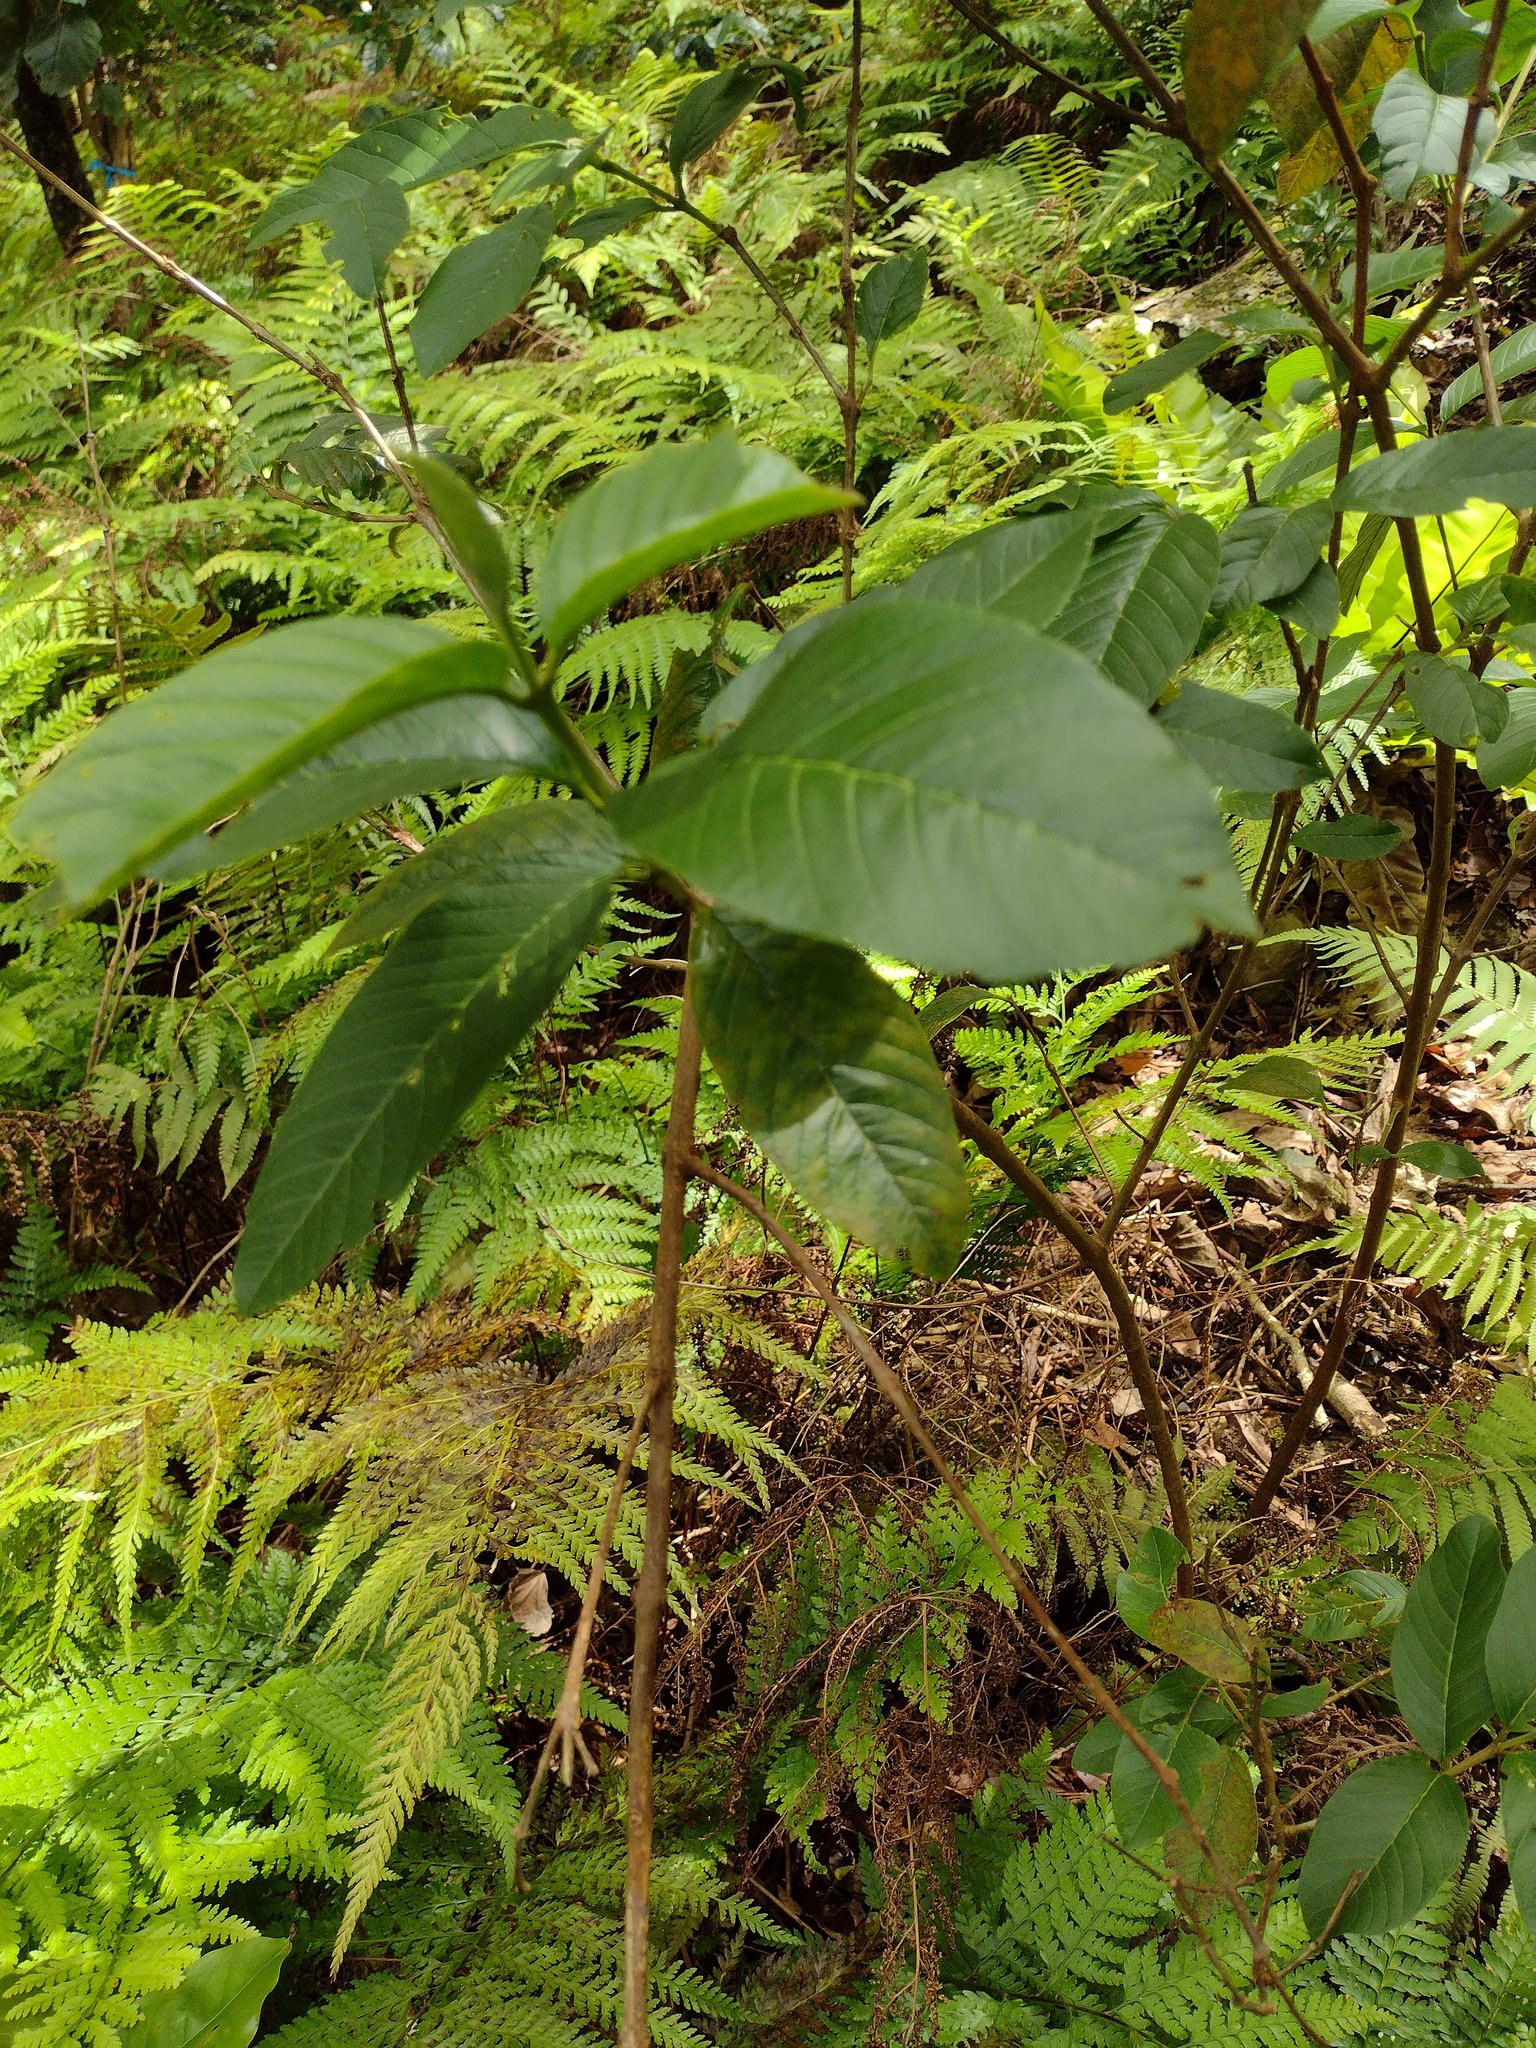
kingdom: Plantae
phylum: Tracheophyta
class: Magnoliopsida
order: Myrtales
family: Myrtaceae
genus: Psidium
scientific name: Psidium guajava
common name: Guava
